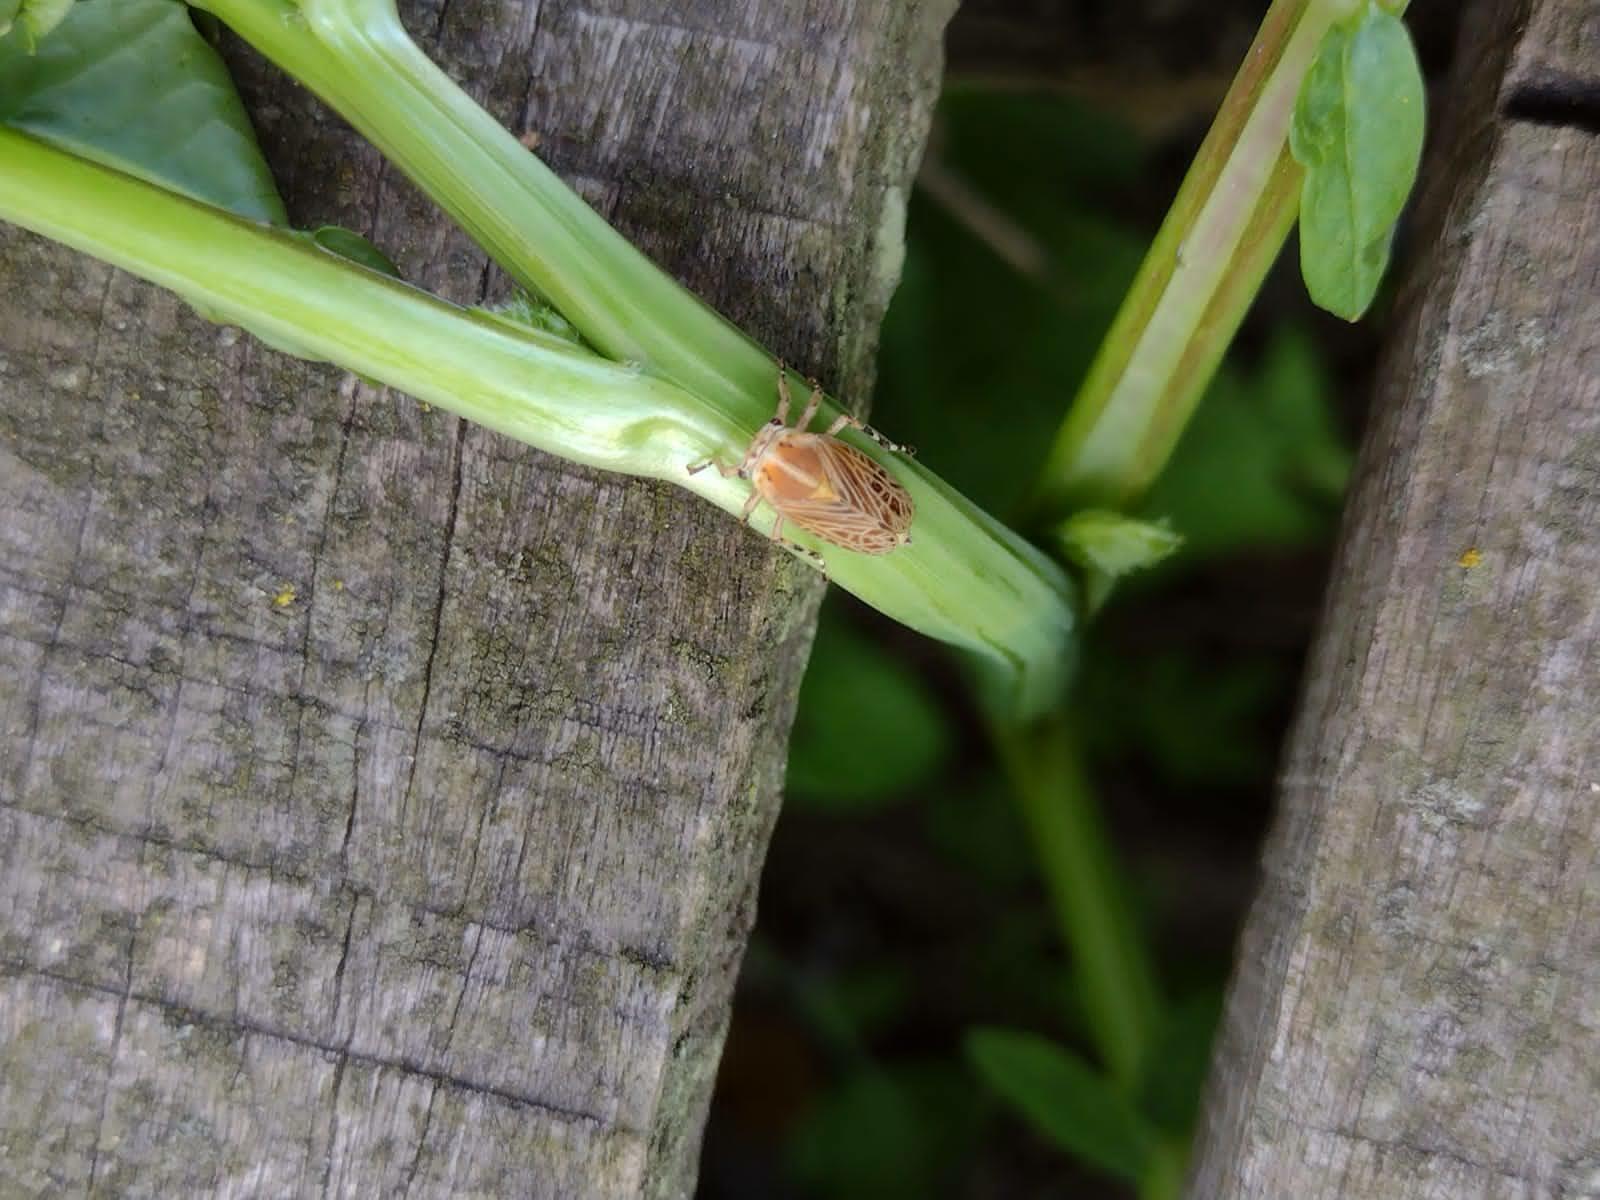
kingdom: Animalia
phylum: Arthropoda
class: Insecta
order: Hemiptera
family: Aetalionidae
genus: Aetalion
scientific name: Aetalion reticulatum
